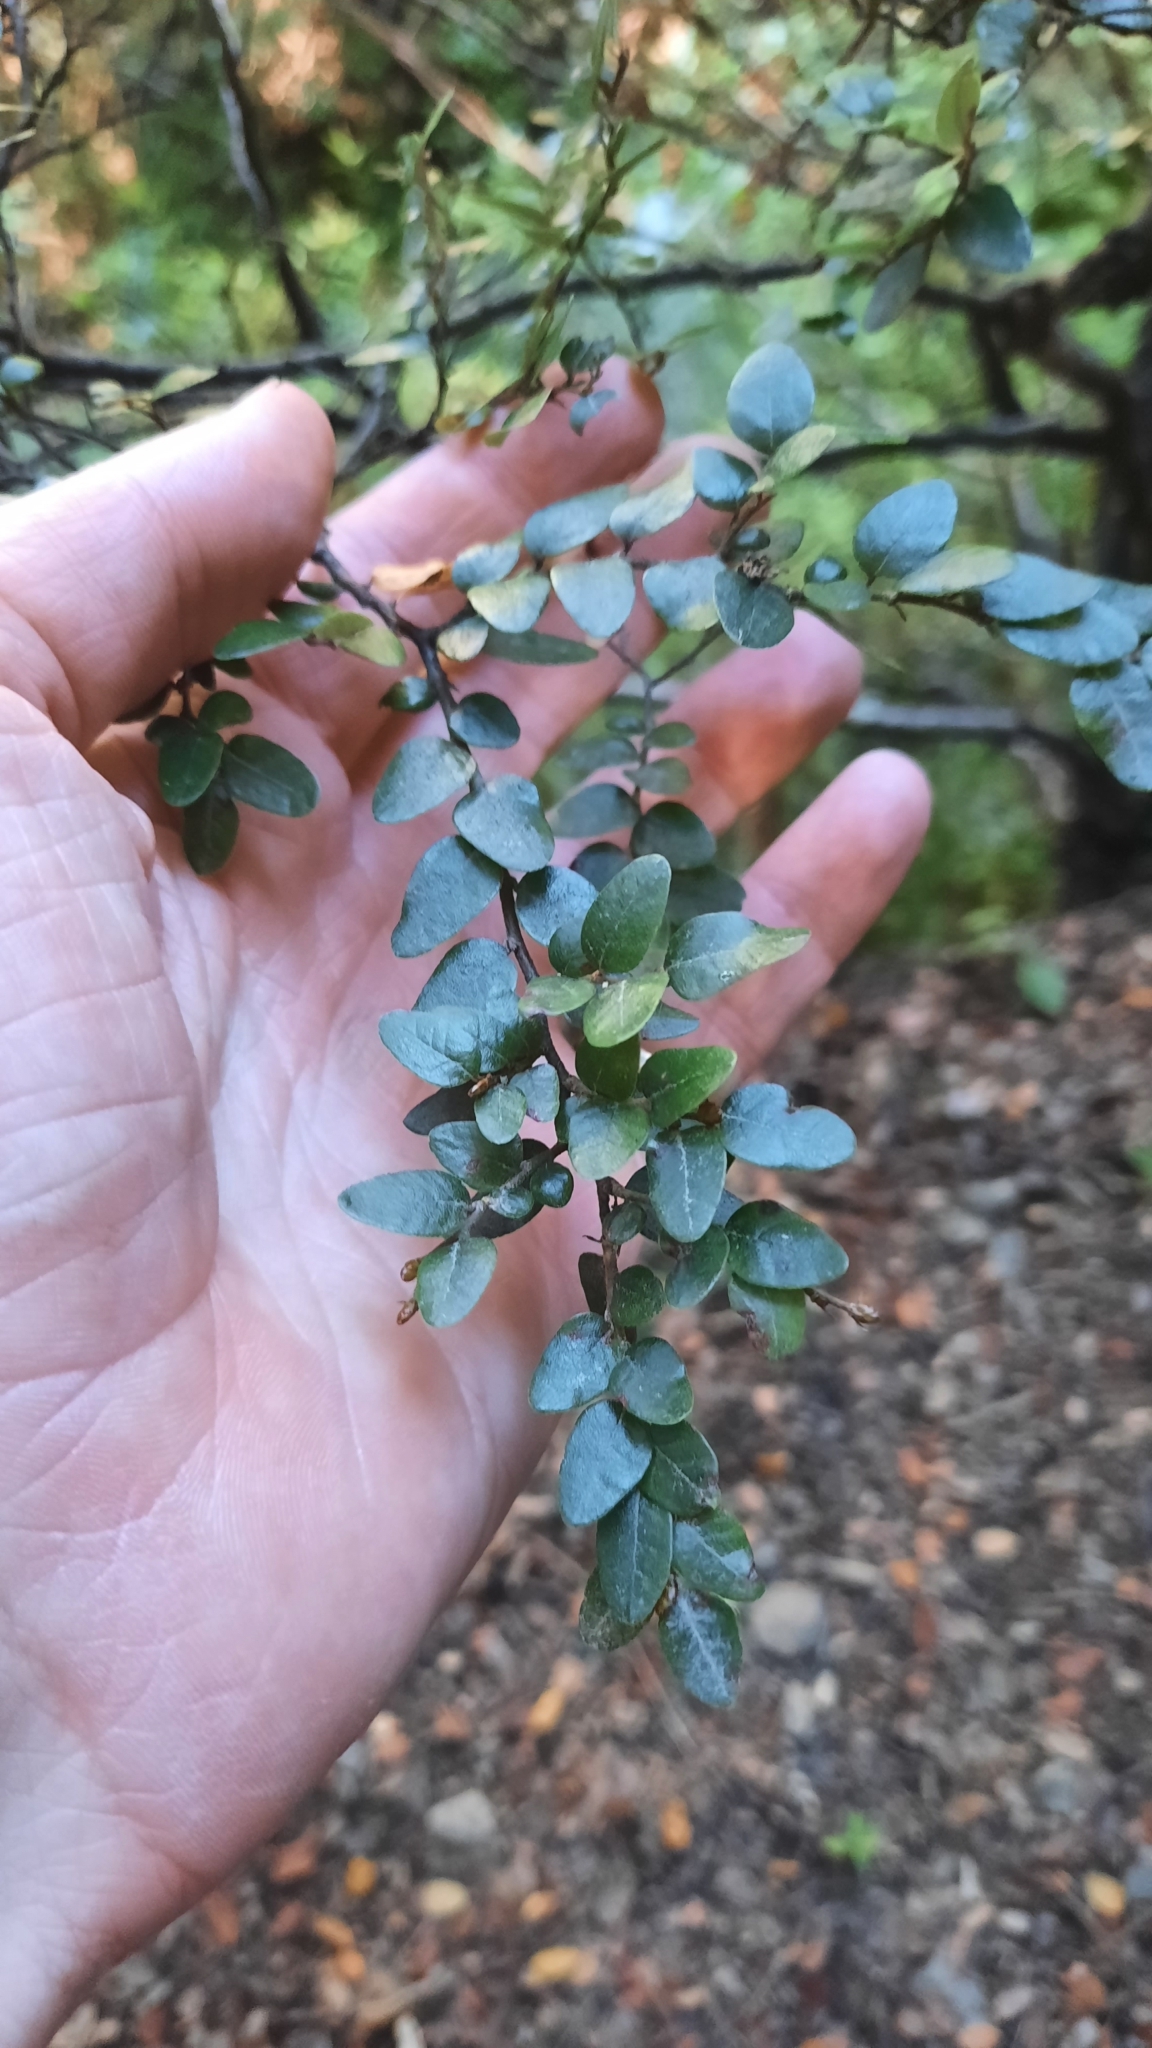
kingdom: Plantae
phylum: Tracheophyta
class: Magnoliopsida
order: Fagales
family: Nothofagaceae
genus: Nothofagus
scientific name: Nothofagus solandri
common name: Black beech
